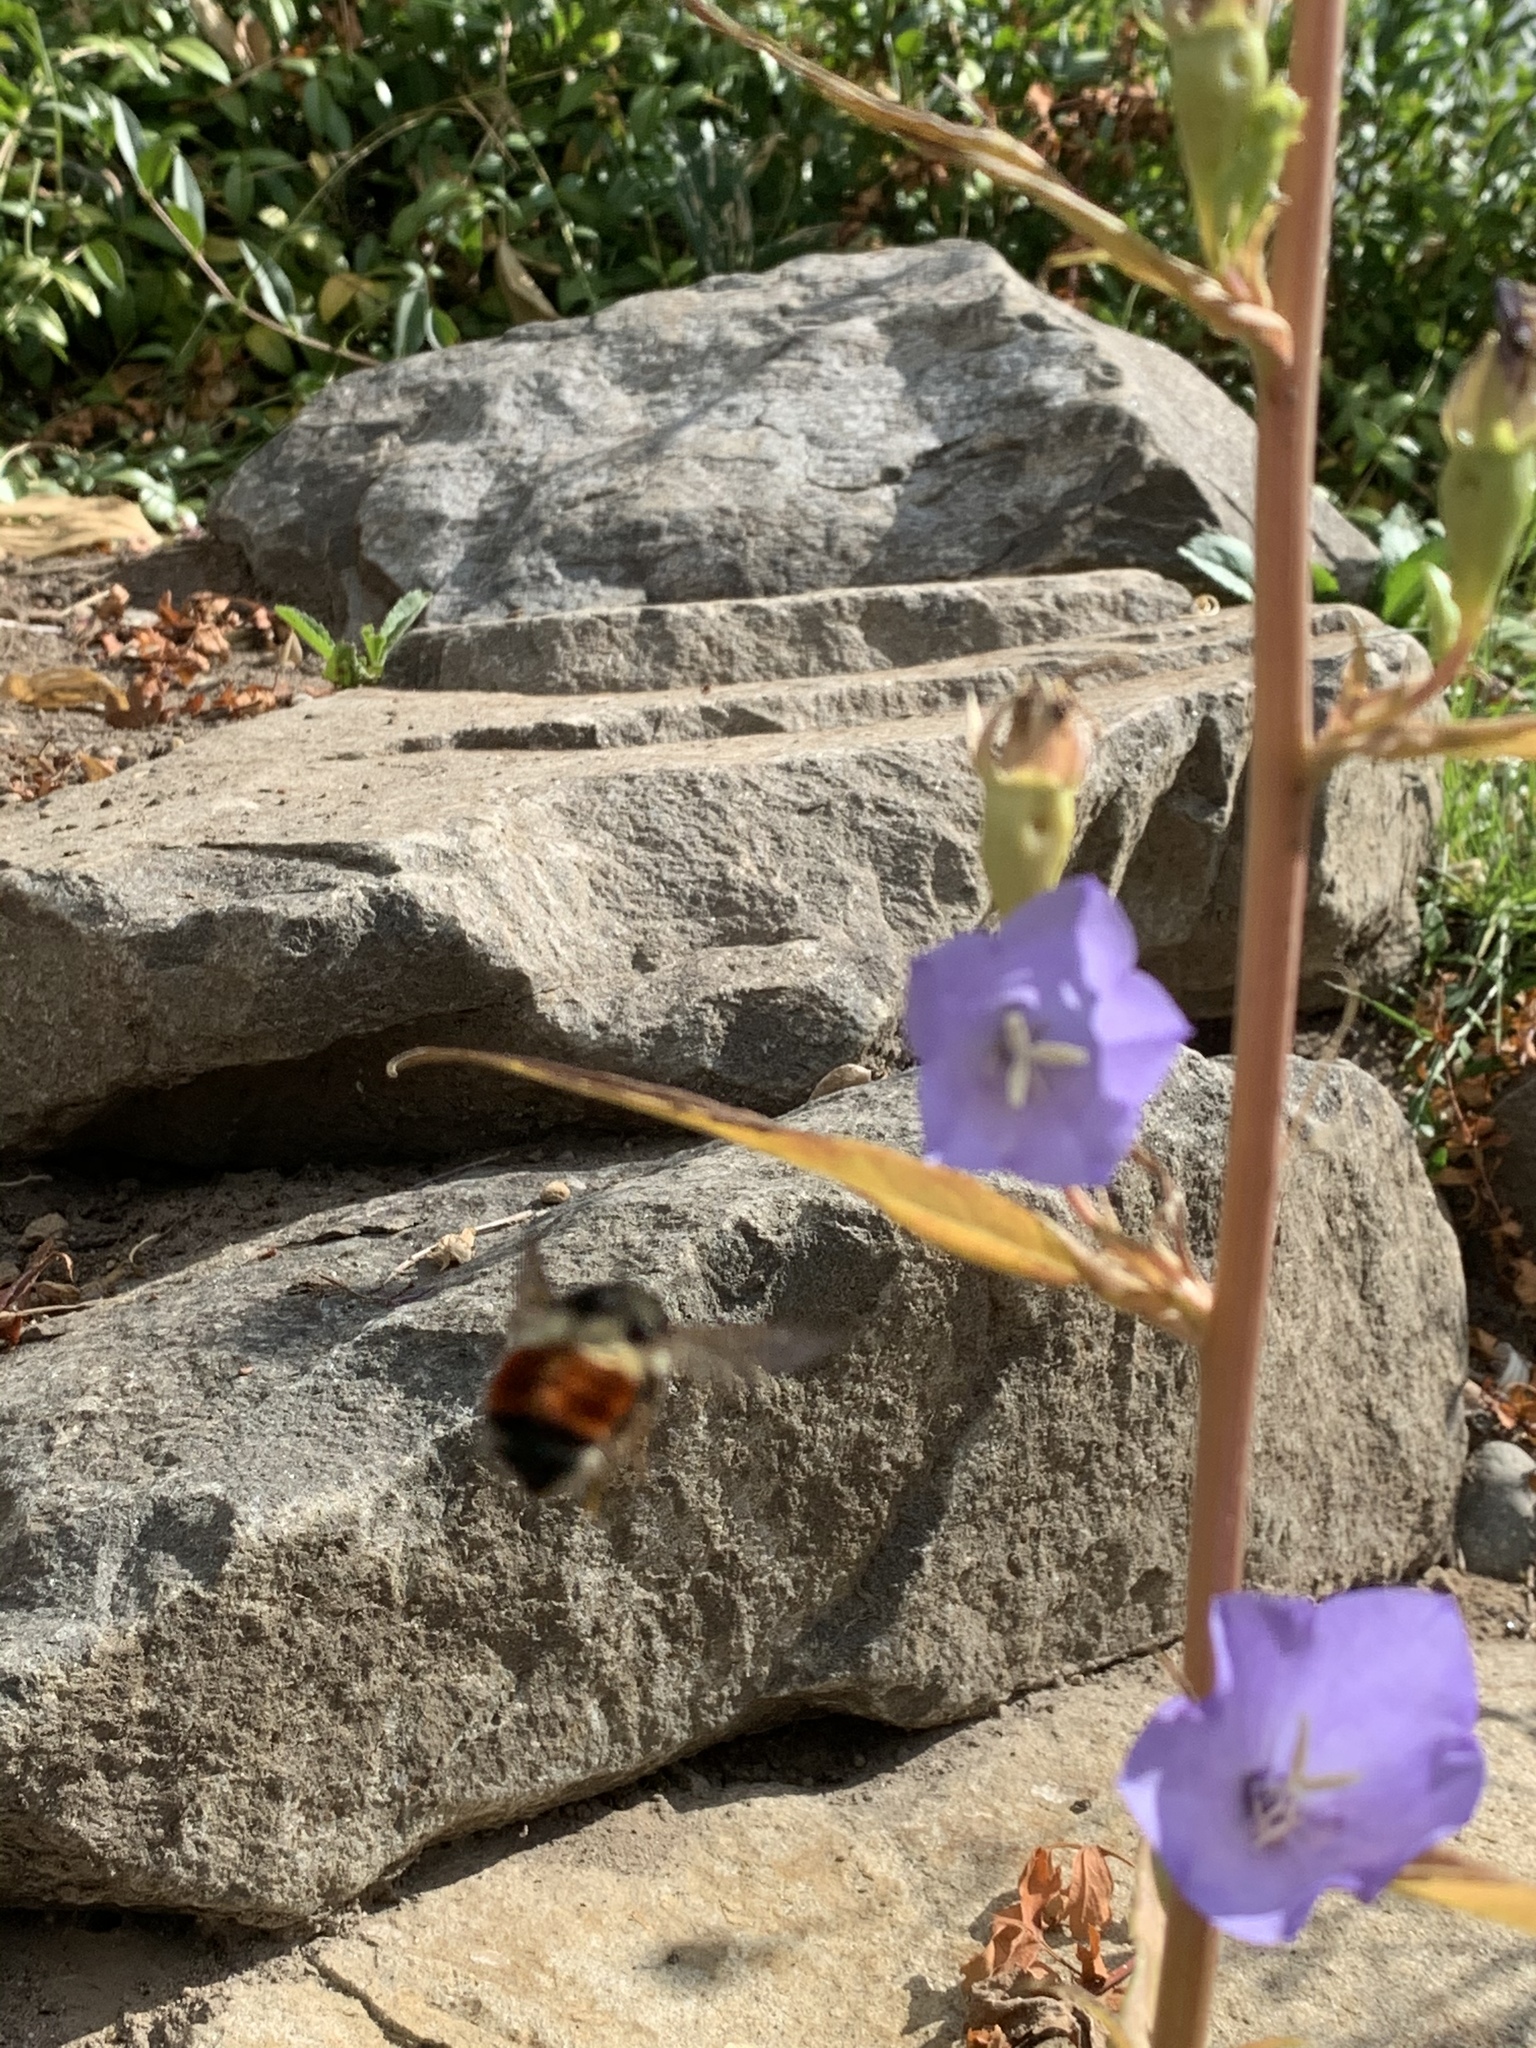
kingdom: Animalia
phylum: Arthropoda
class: Insecta
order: Hymenoptera
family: Apidae
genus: Bombus
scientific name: Bombus melanopygus
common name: Black tail bumble bee
